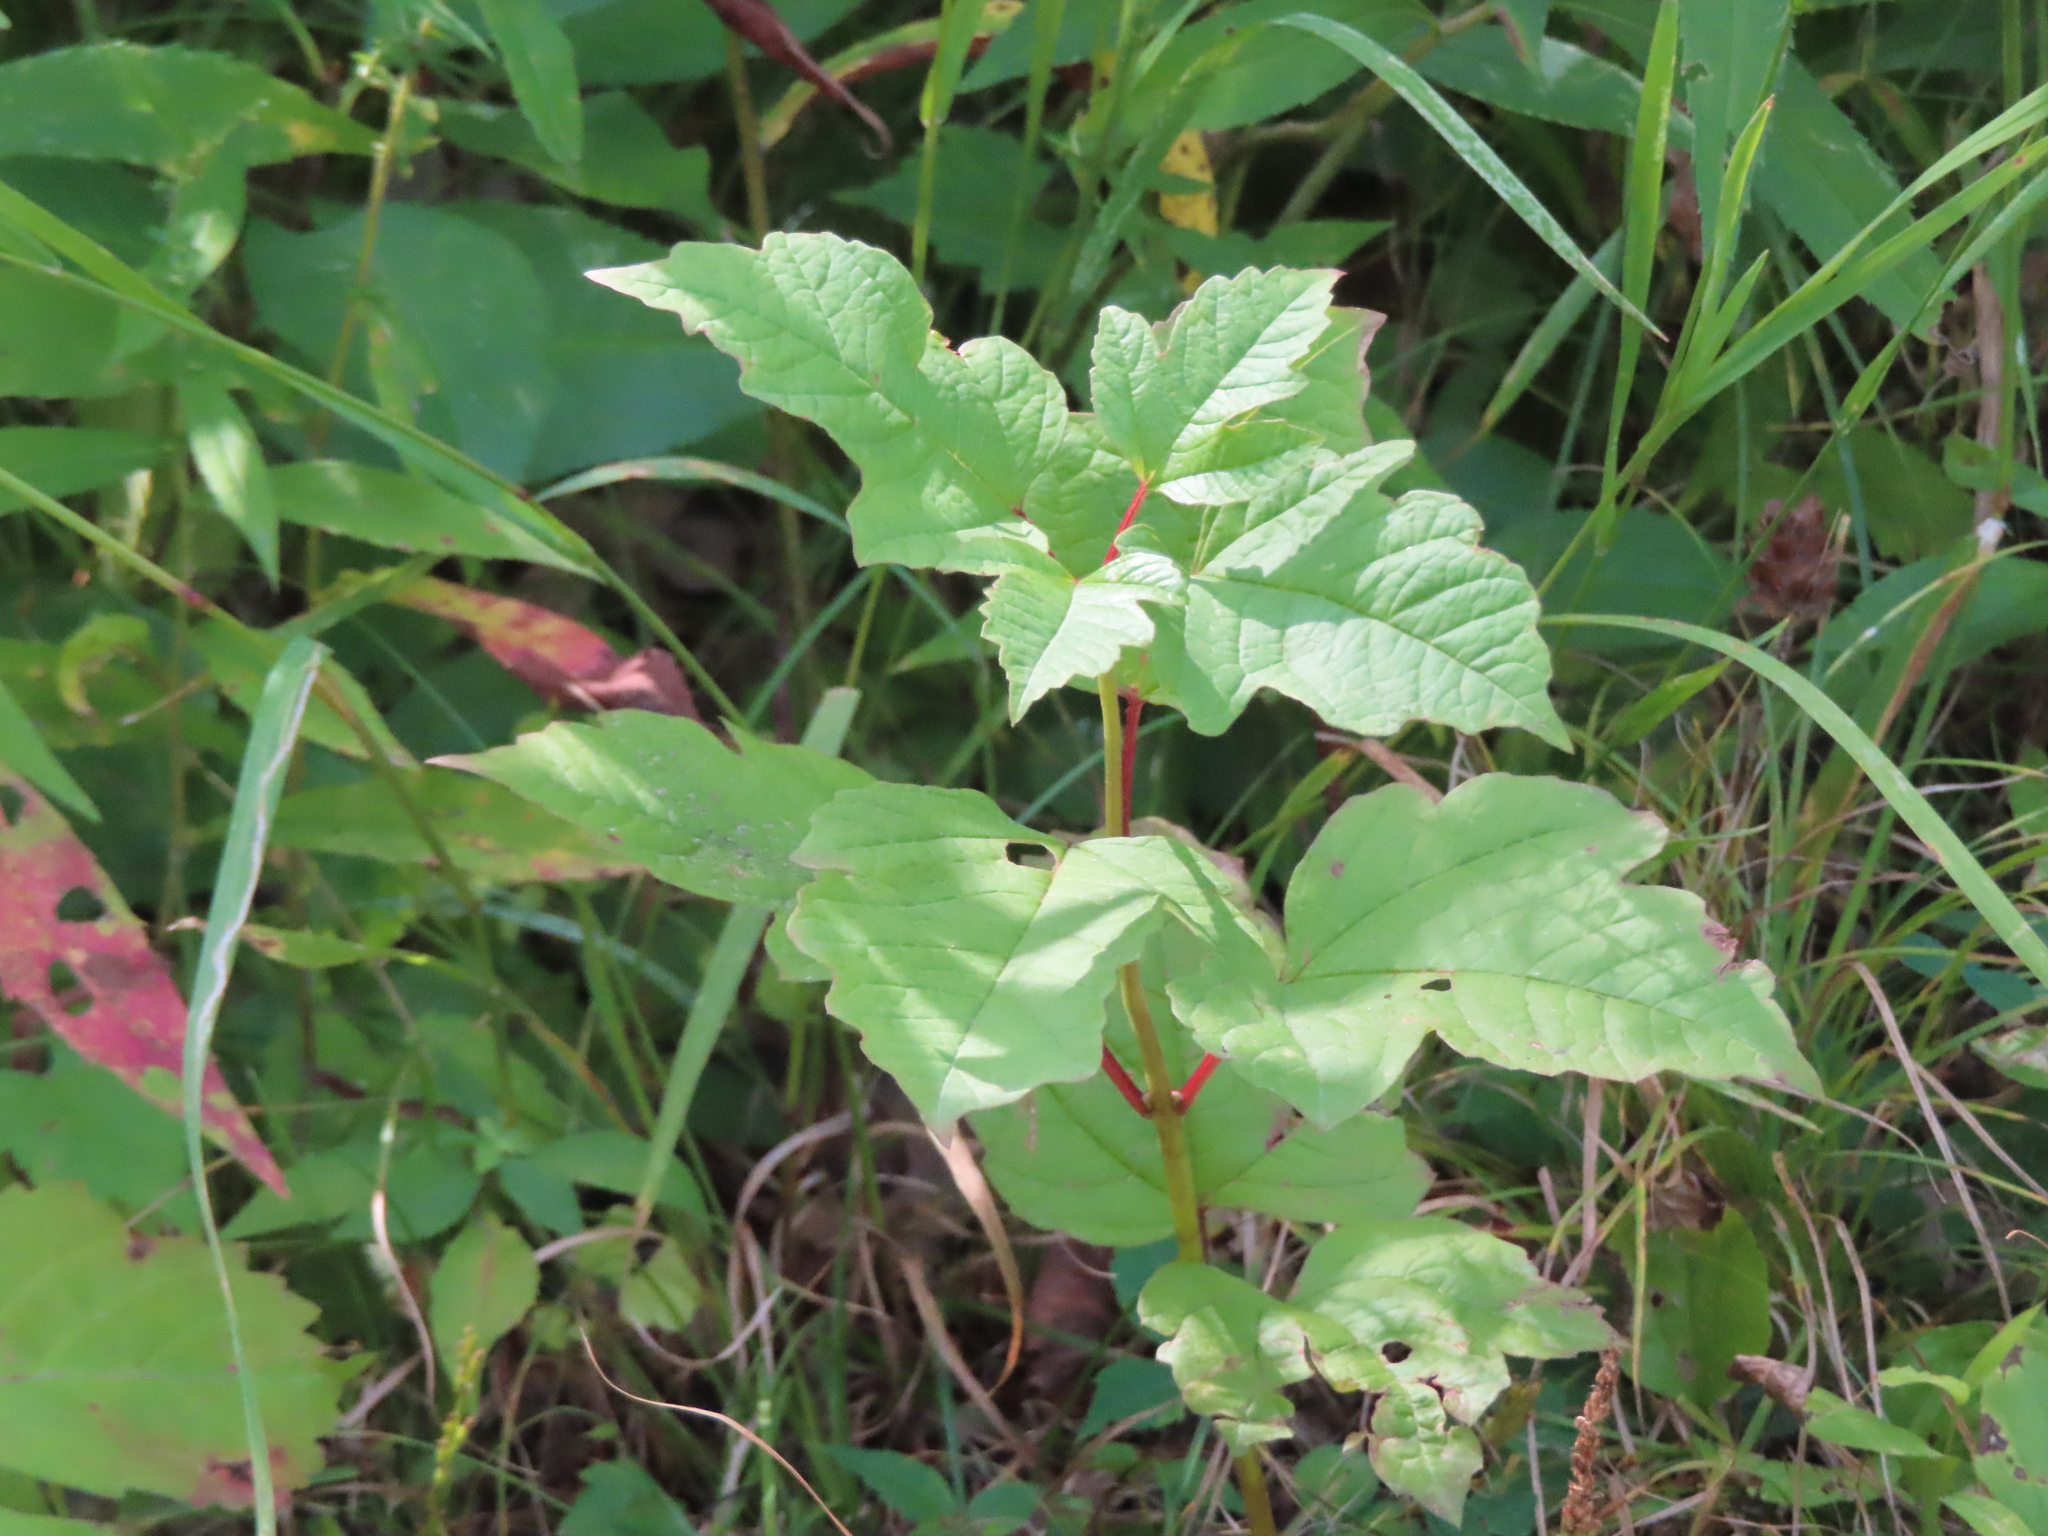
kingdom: Plantae
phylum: Tracheophyta
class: Magnoliopsida
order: Dipsacales
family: Viburnaceae
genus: Viburnum
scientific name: Viburnum opulus
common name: Guelder-rose
